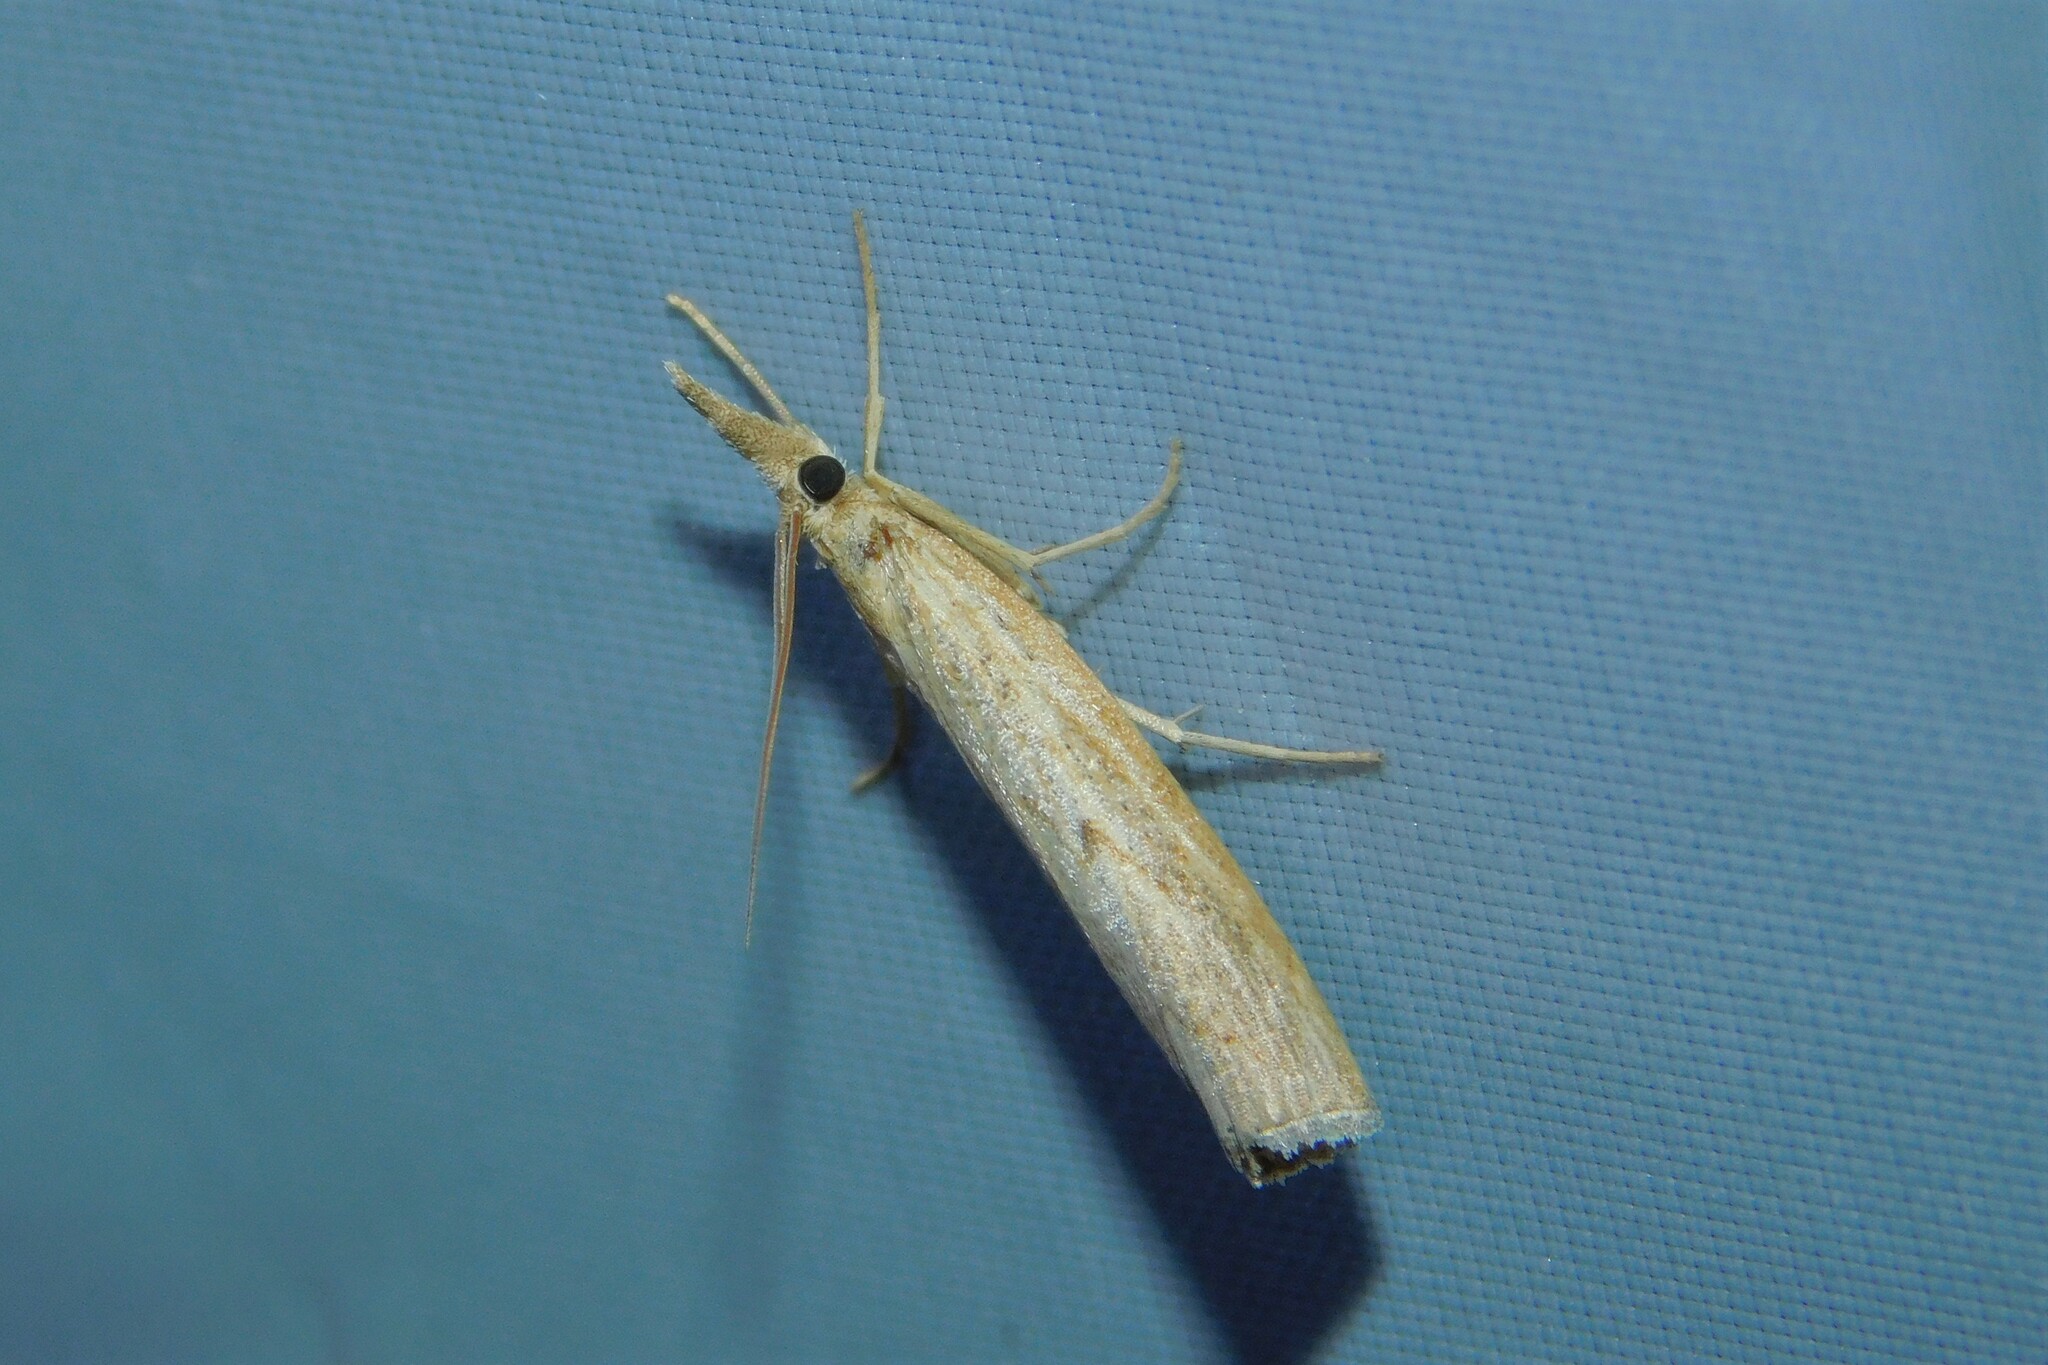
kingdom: Animalia
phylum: Arthropoda
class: Insecta
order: Lepidoptera
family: Crambidae
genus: Pediasia
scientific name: Pediasia contaminella
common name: Waste grass-veneer
